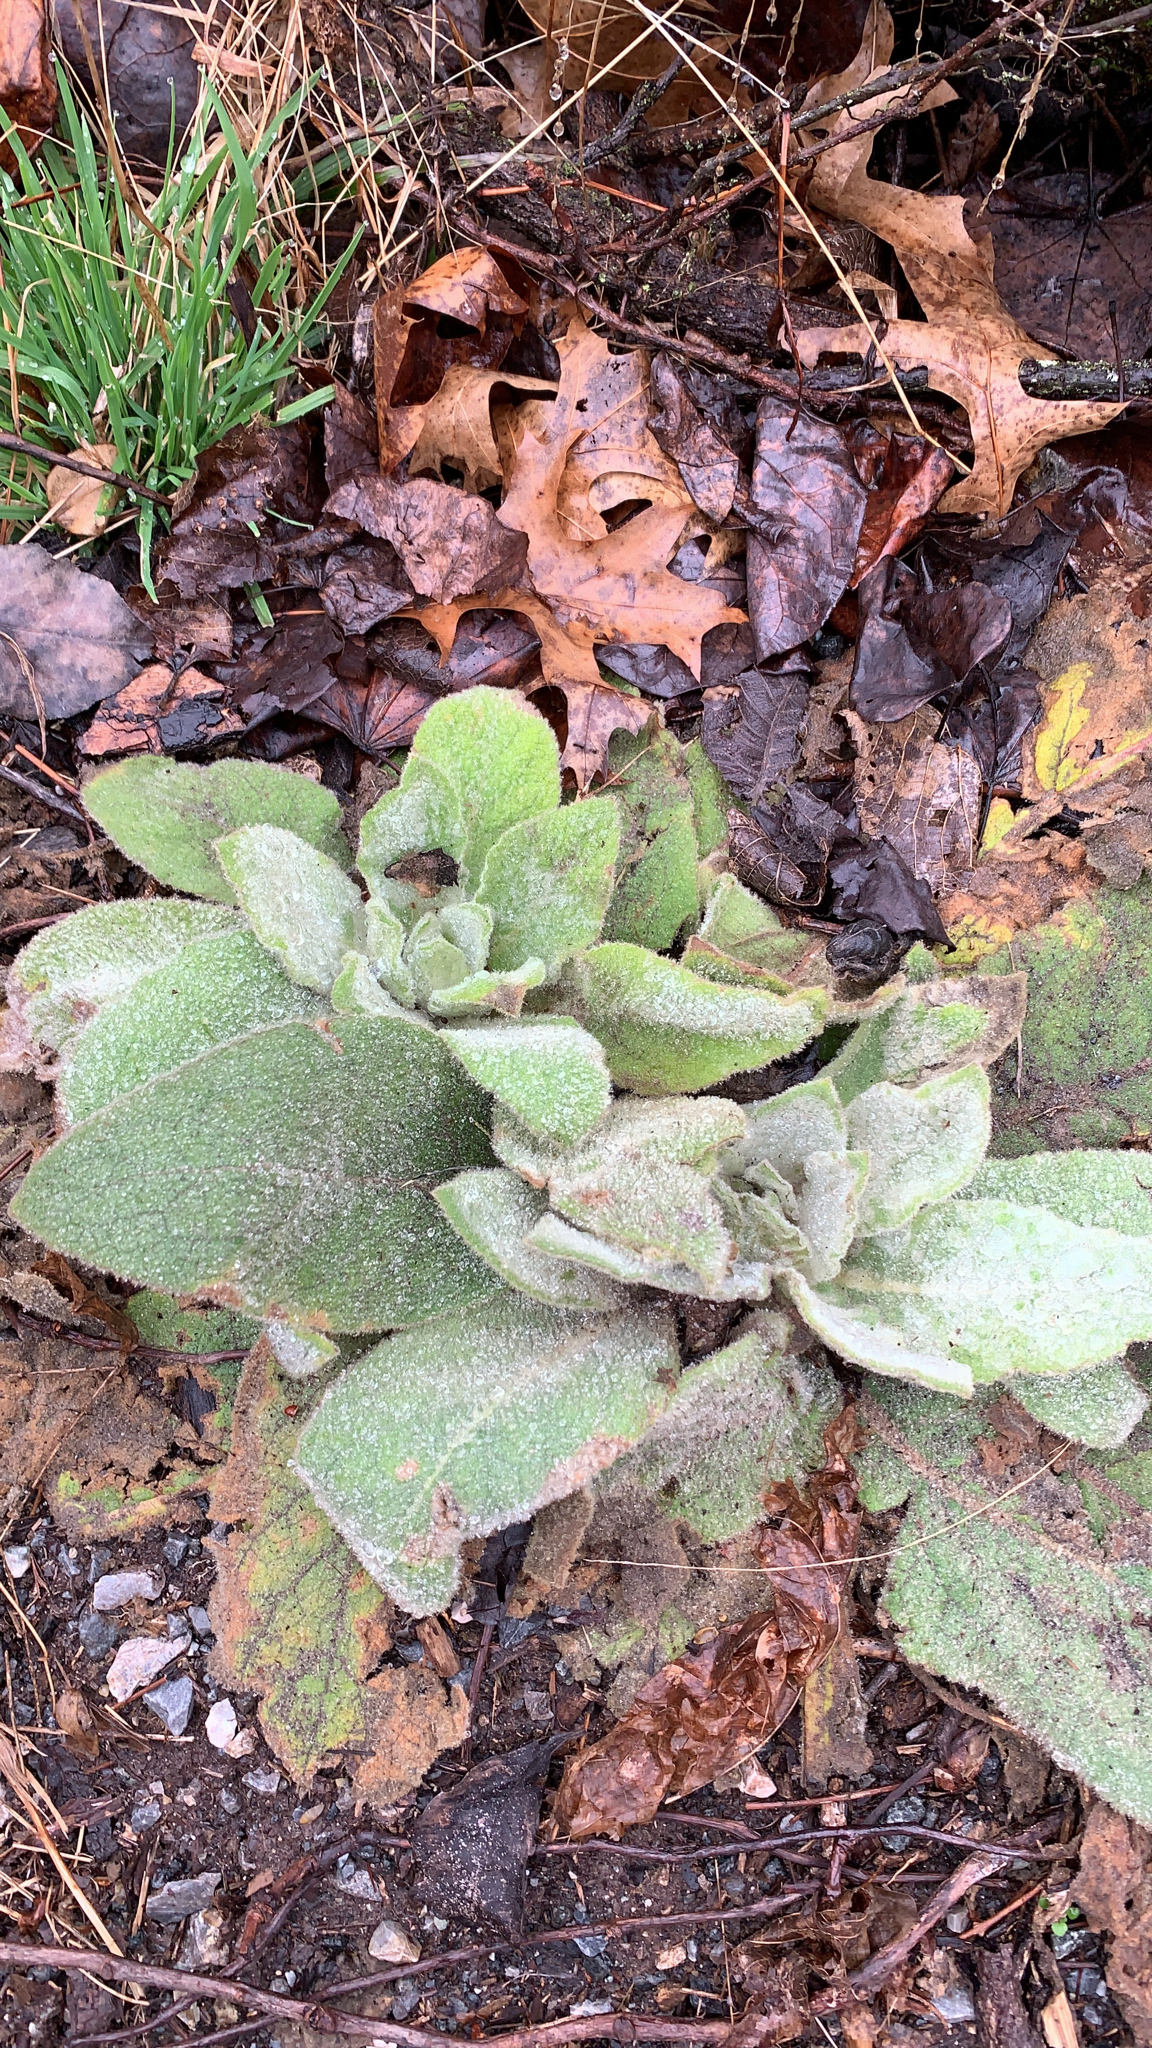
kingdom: Plantae
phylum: Tracheophyta
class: Magnoliopsida
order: Lamiales
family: Scrophulariaceae
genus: Verbascum
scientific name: Verbascum thapsus
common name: Common mullein
